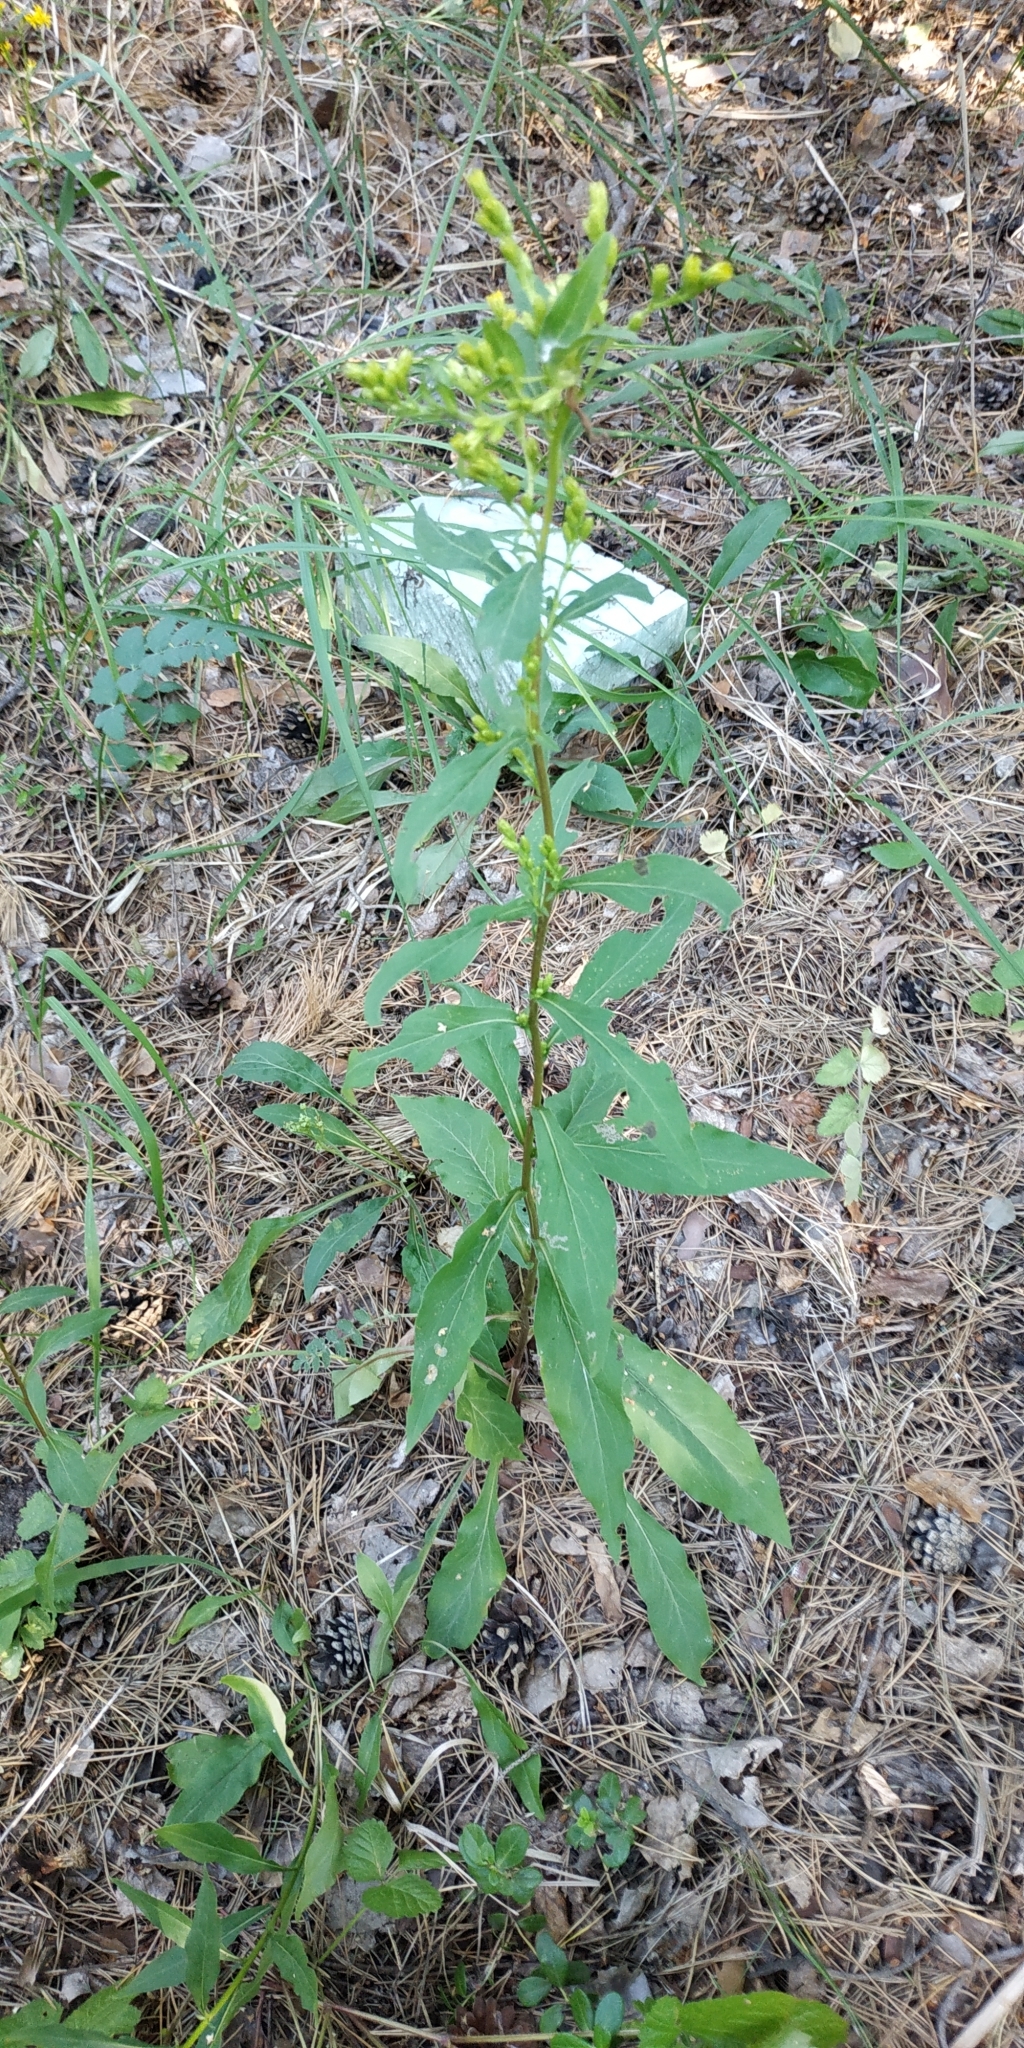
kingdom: Plantae
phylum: Tracheophyta
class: Magnoliopsida
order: Asterales
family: Asteraceae
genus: Solidago
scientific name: Solidago virgaurea
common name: Goldenrod
